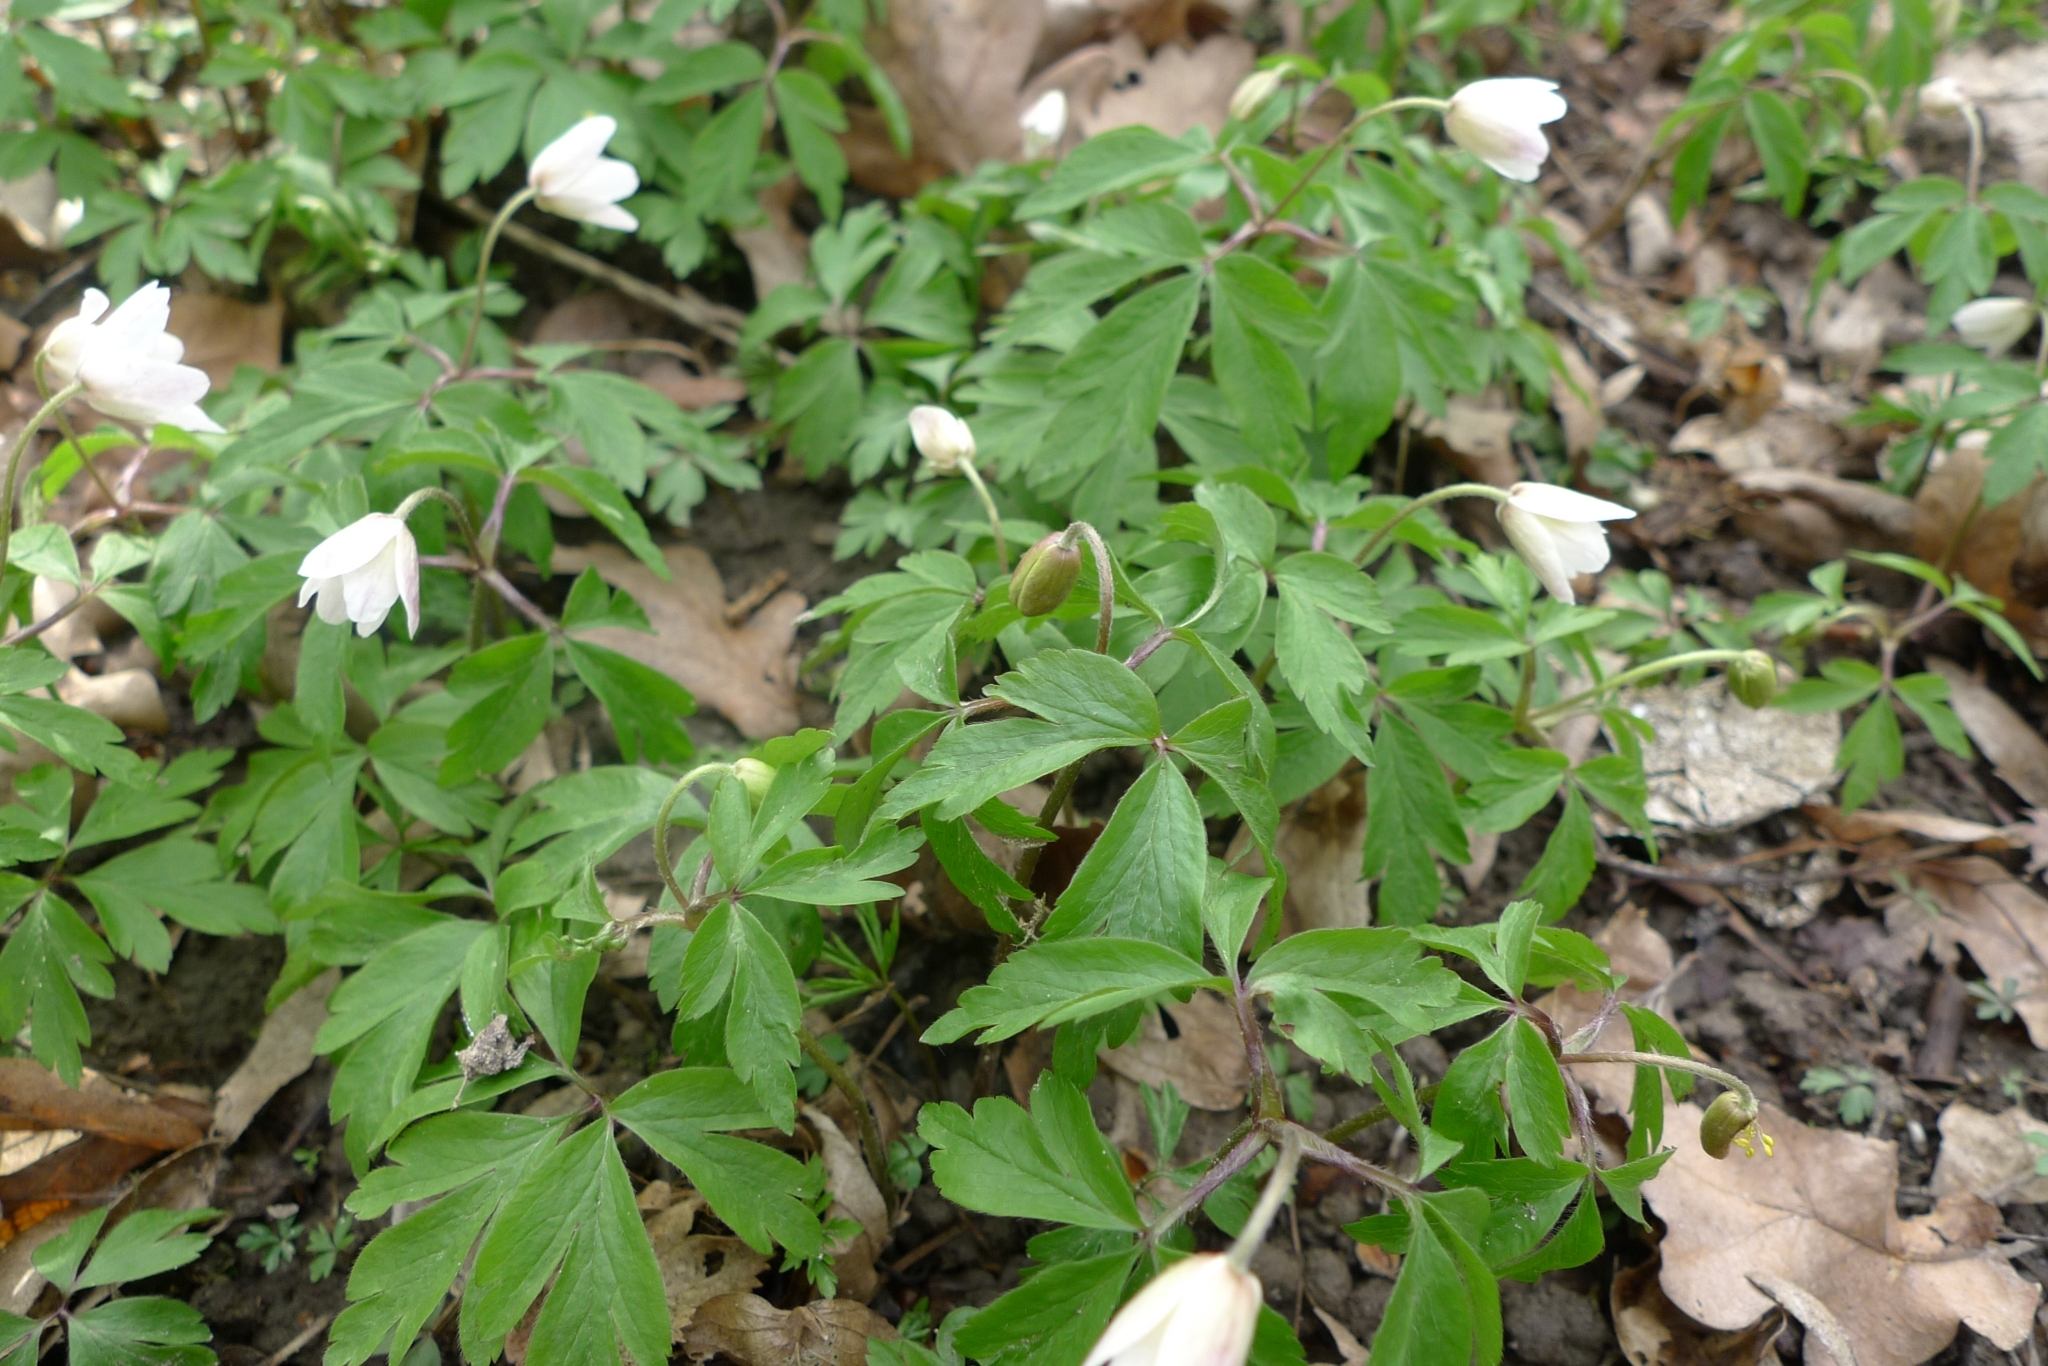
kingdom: Plantae
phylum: Tracheophyta
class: Magnoliopsida
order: Ranunculales
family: Ranunculaceae
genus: Anemone
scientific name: Anemone nemorosa
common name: Wood anemone
